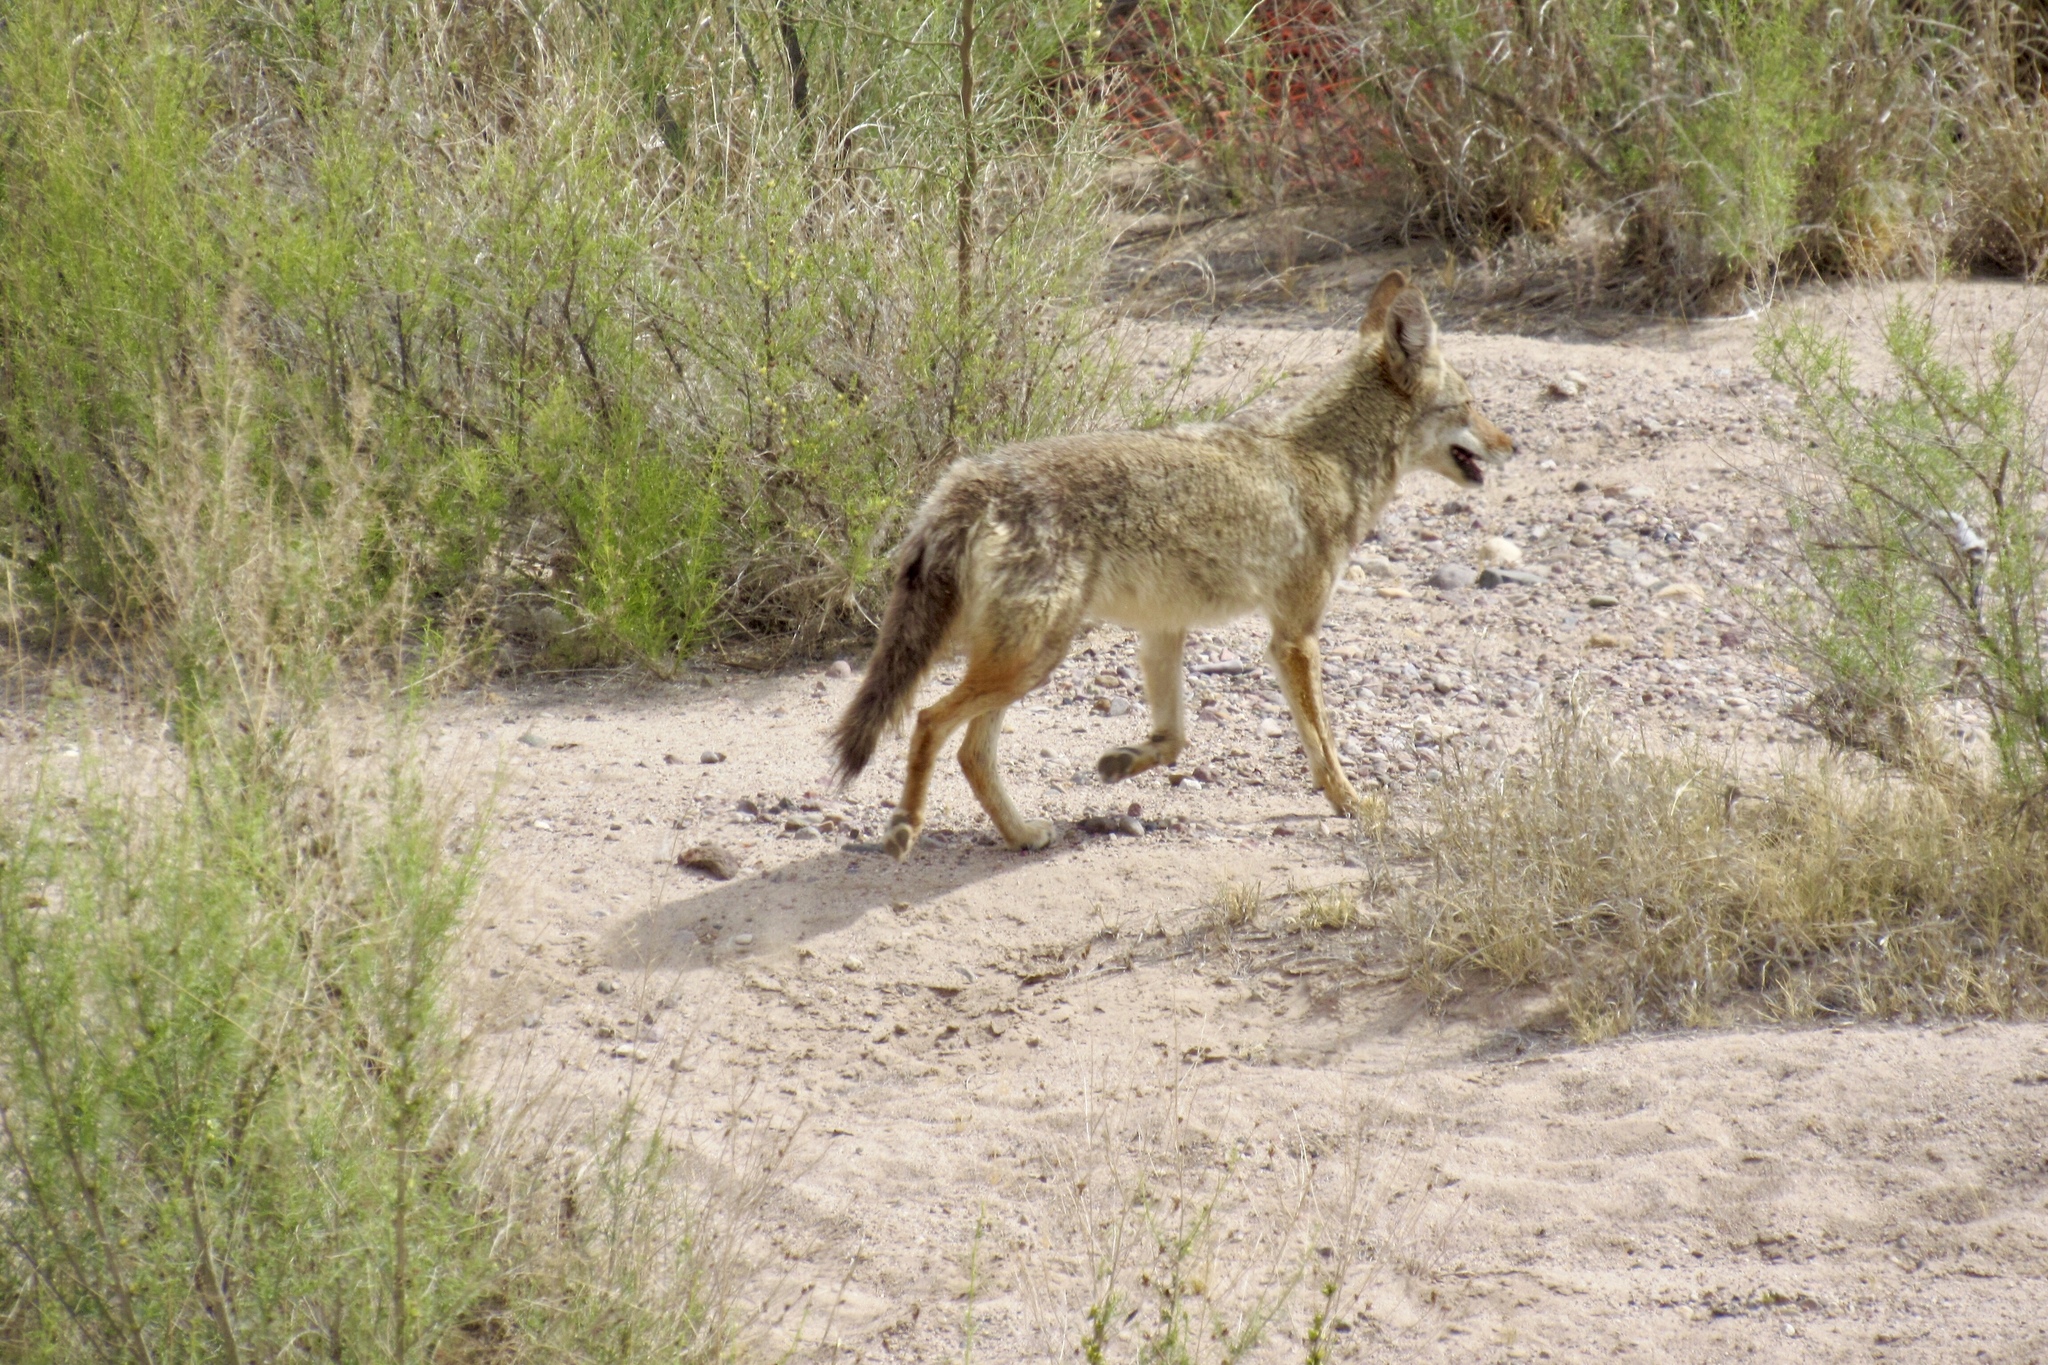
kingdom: Animalia
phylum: Chordata
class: Mammalia
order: Carnivora
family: Canidae
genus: Canis
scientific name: Canis latrans
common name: Coyote
